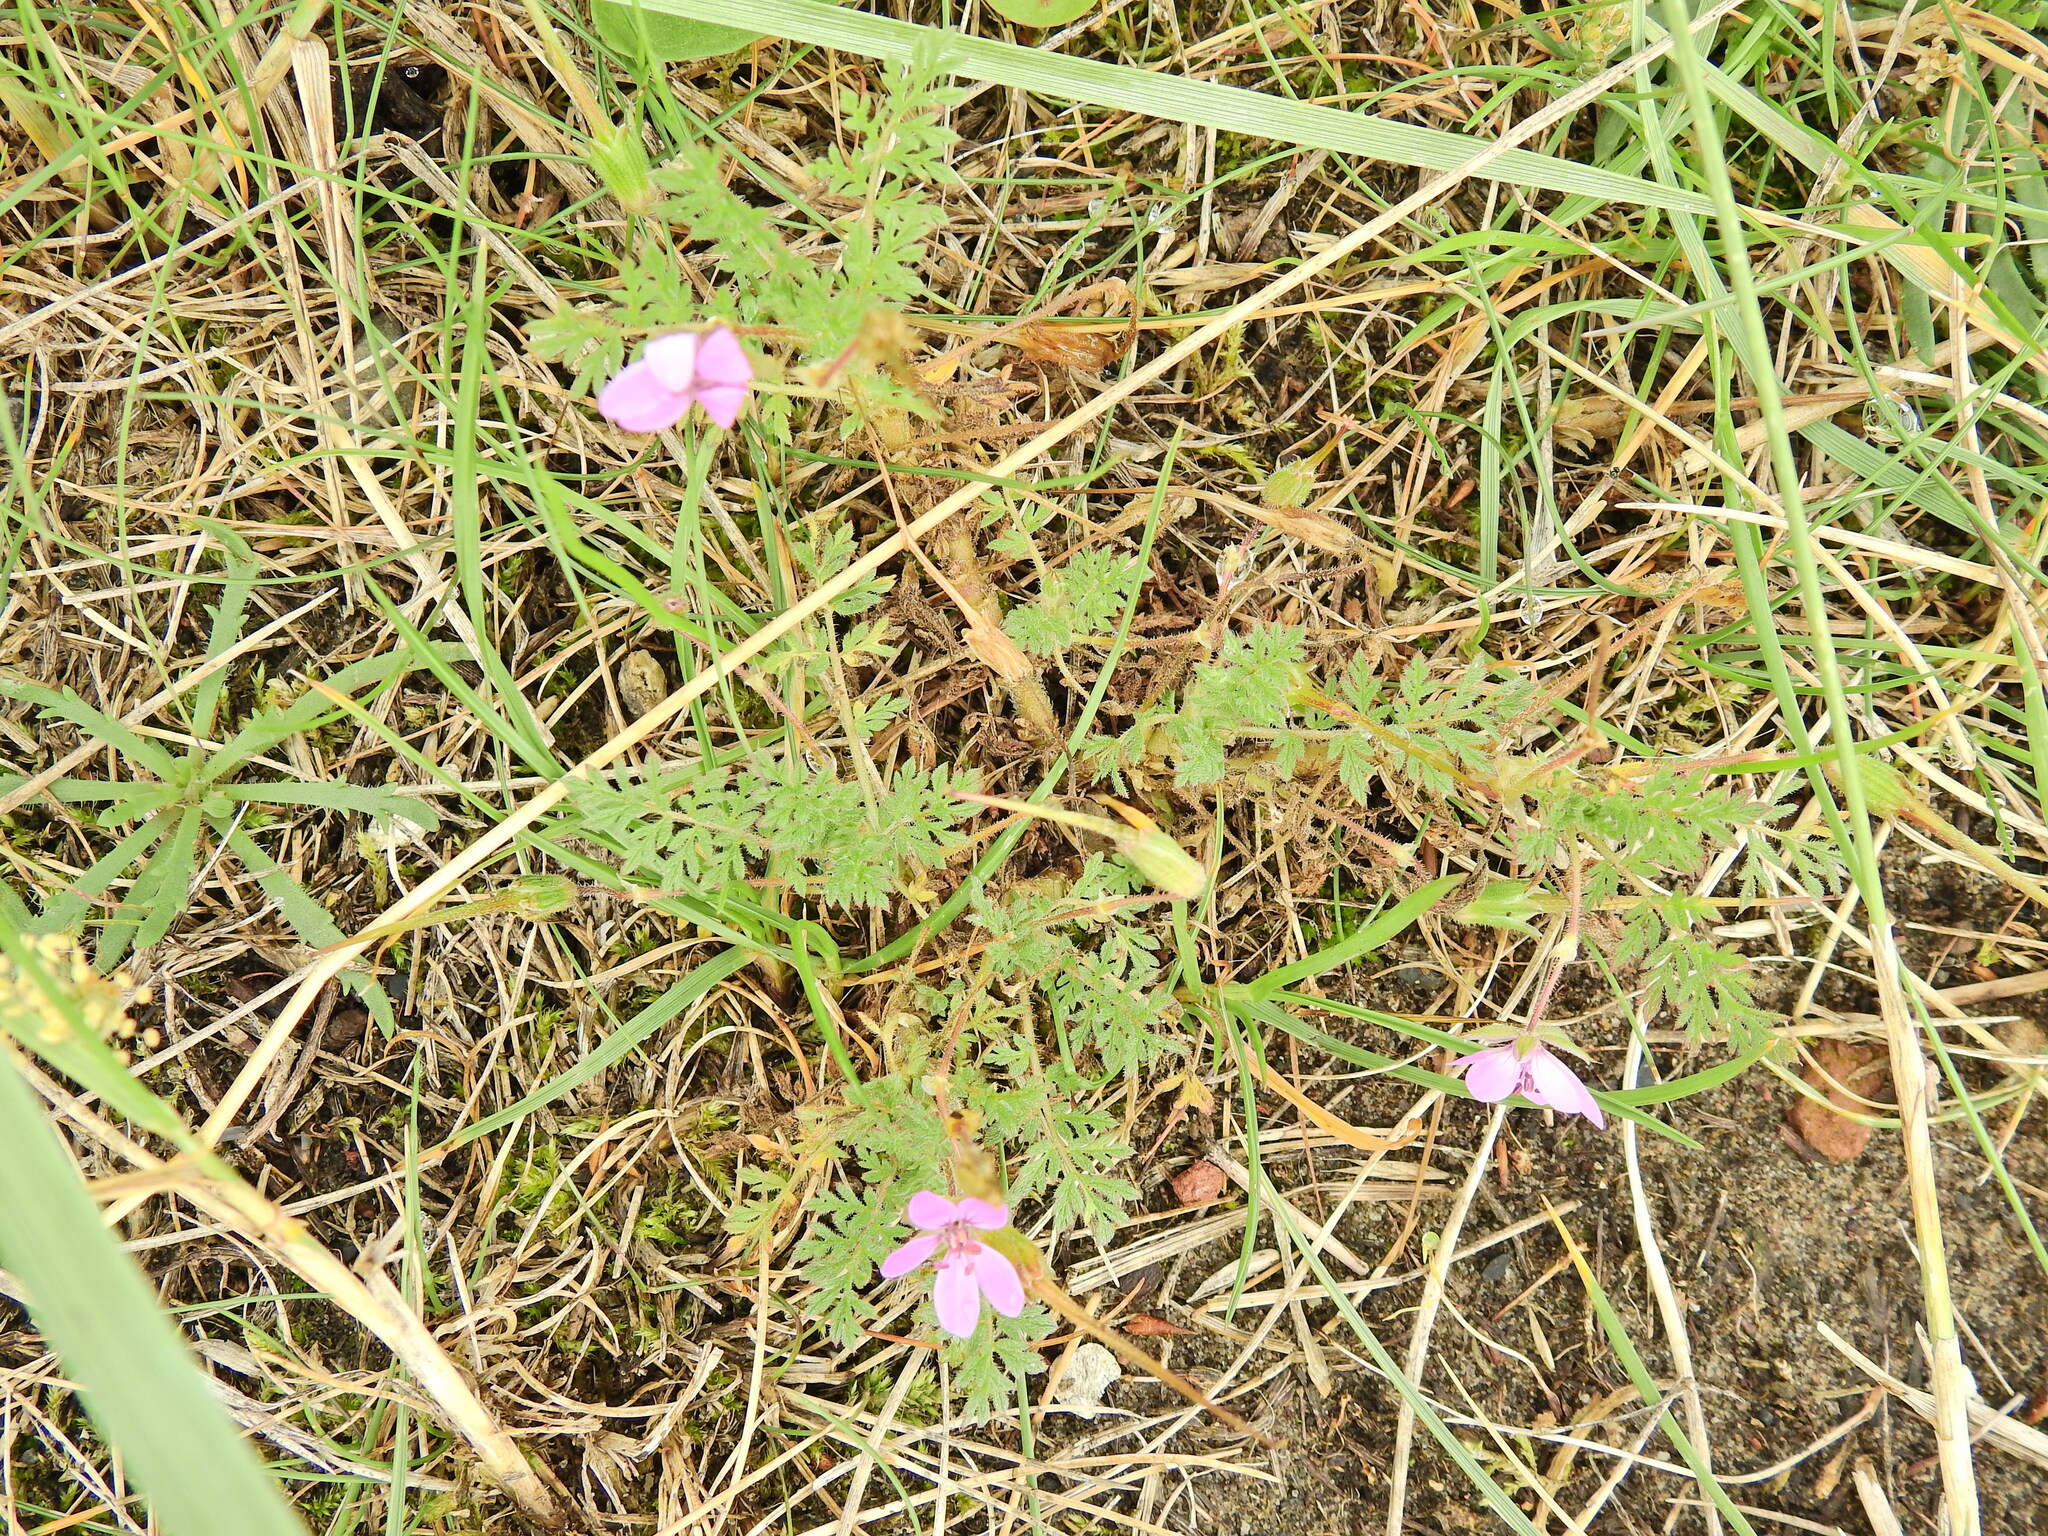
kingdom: Plantae
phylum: Tracheophyta
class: Magnoliopsida
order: Geraniales
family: Geraniaceae
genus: Erodium
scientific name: Erodium cicutarium
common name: Common stork's-bill
